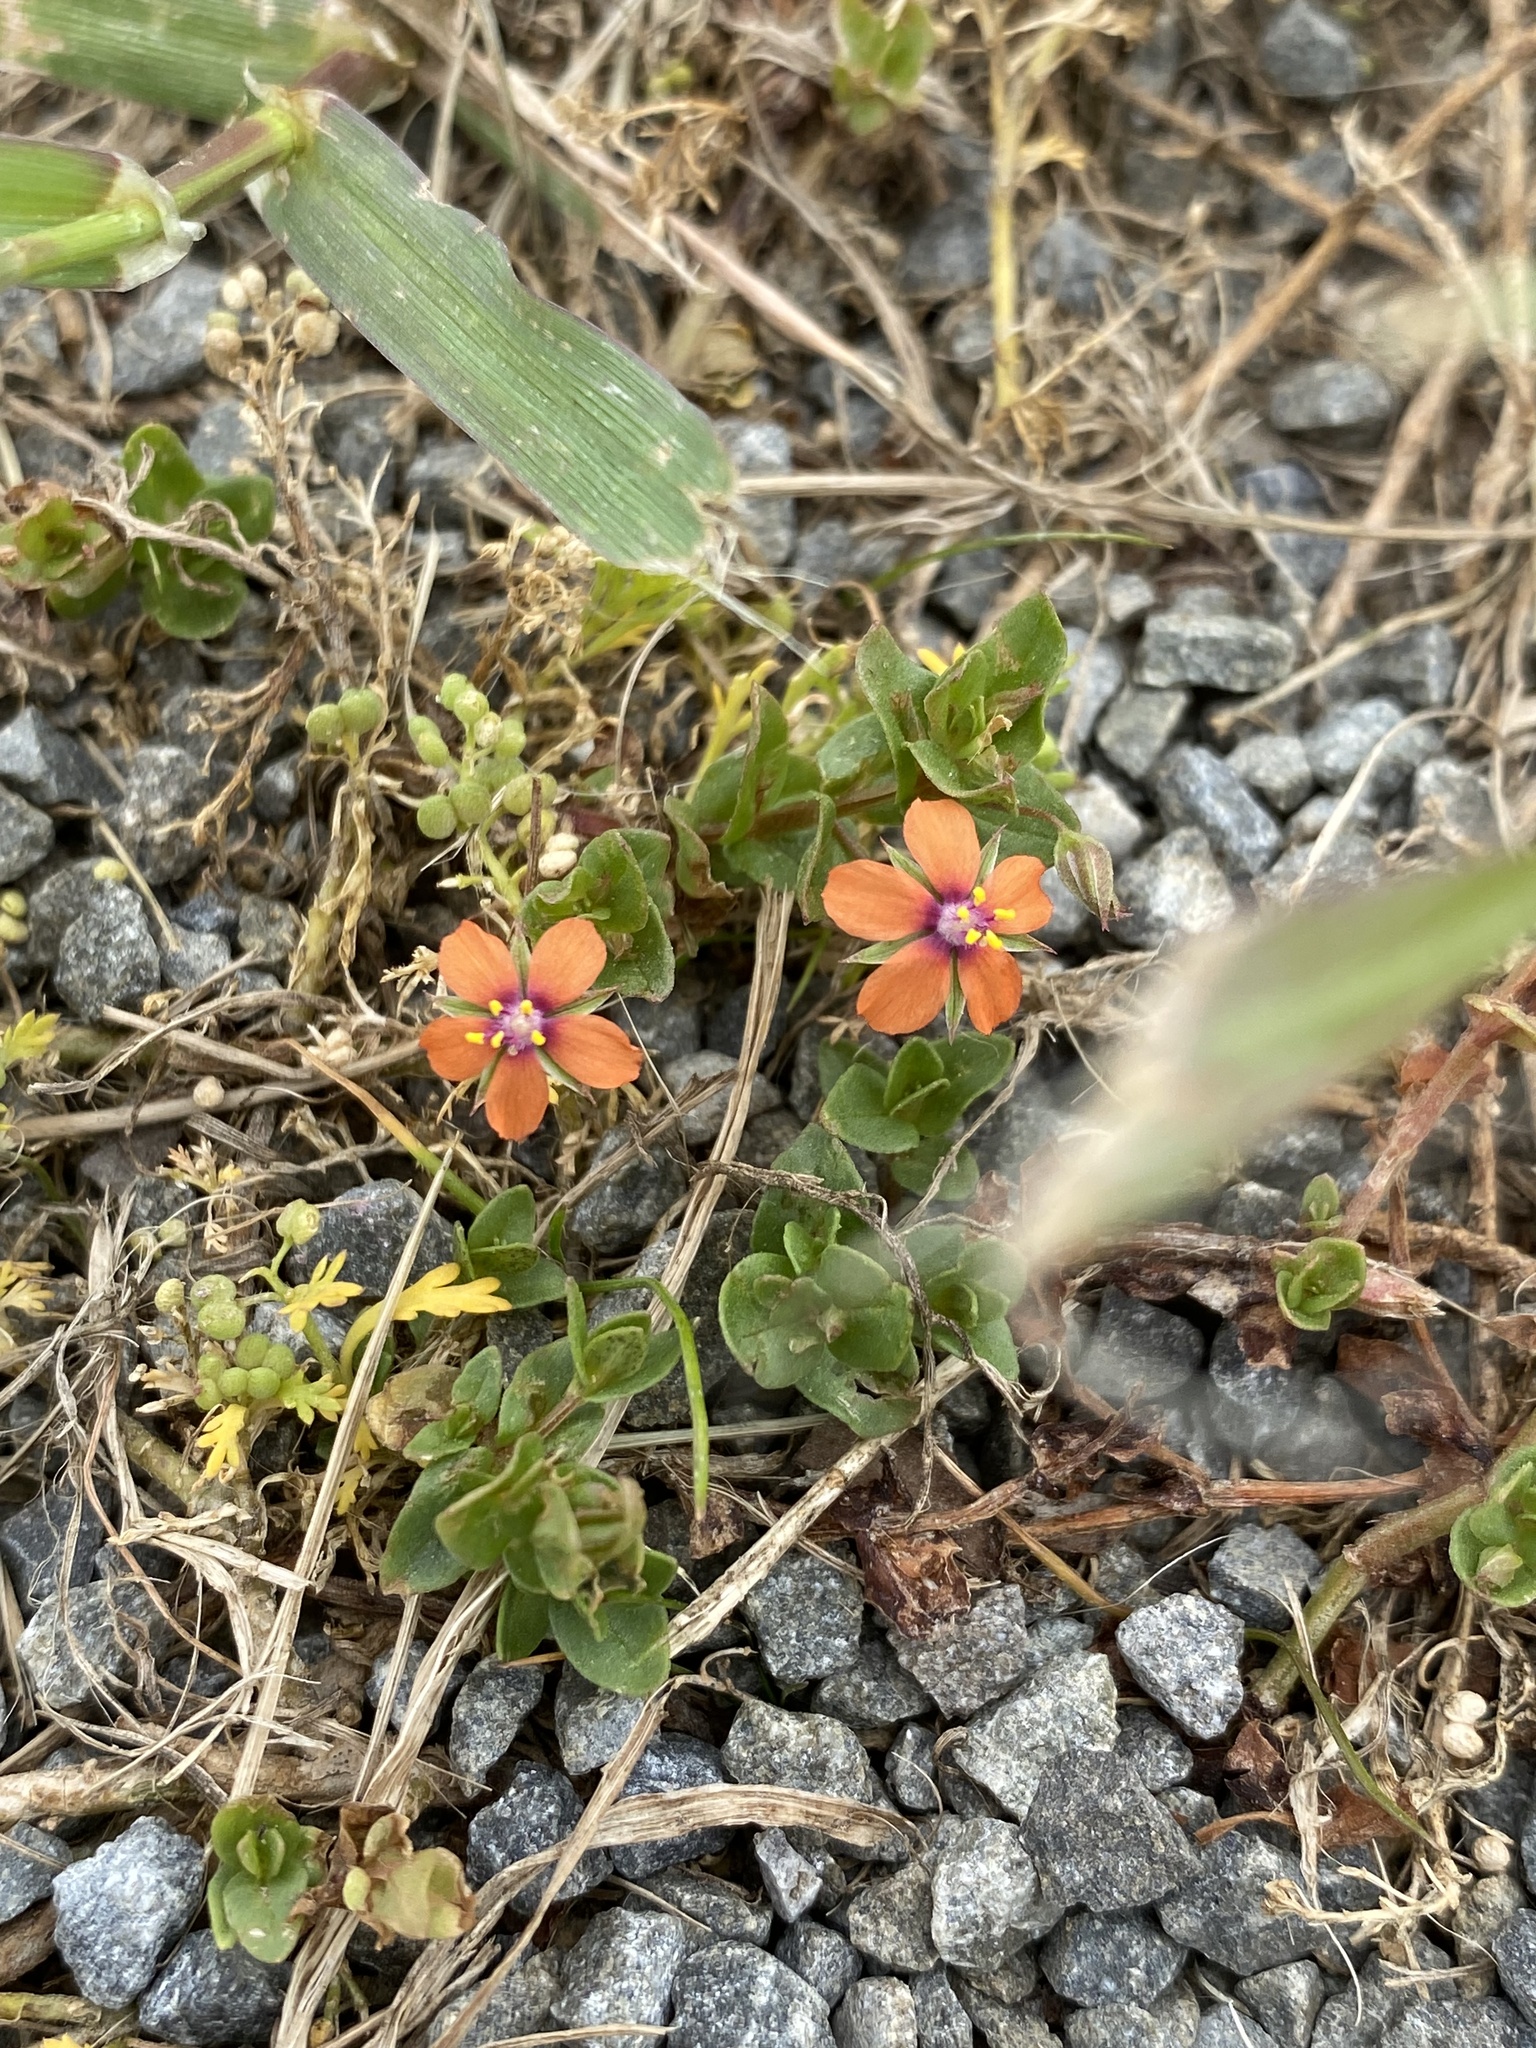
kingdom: Plantae
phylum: Tracheophyta
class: Magnoliopsida
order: Ericales
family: Primulaceae
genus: Lysimachia
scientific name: Lysimachia arvensis
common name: Scarlet pimpernel
